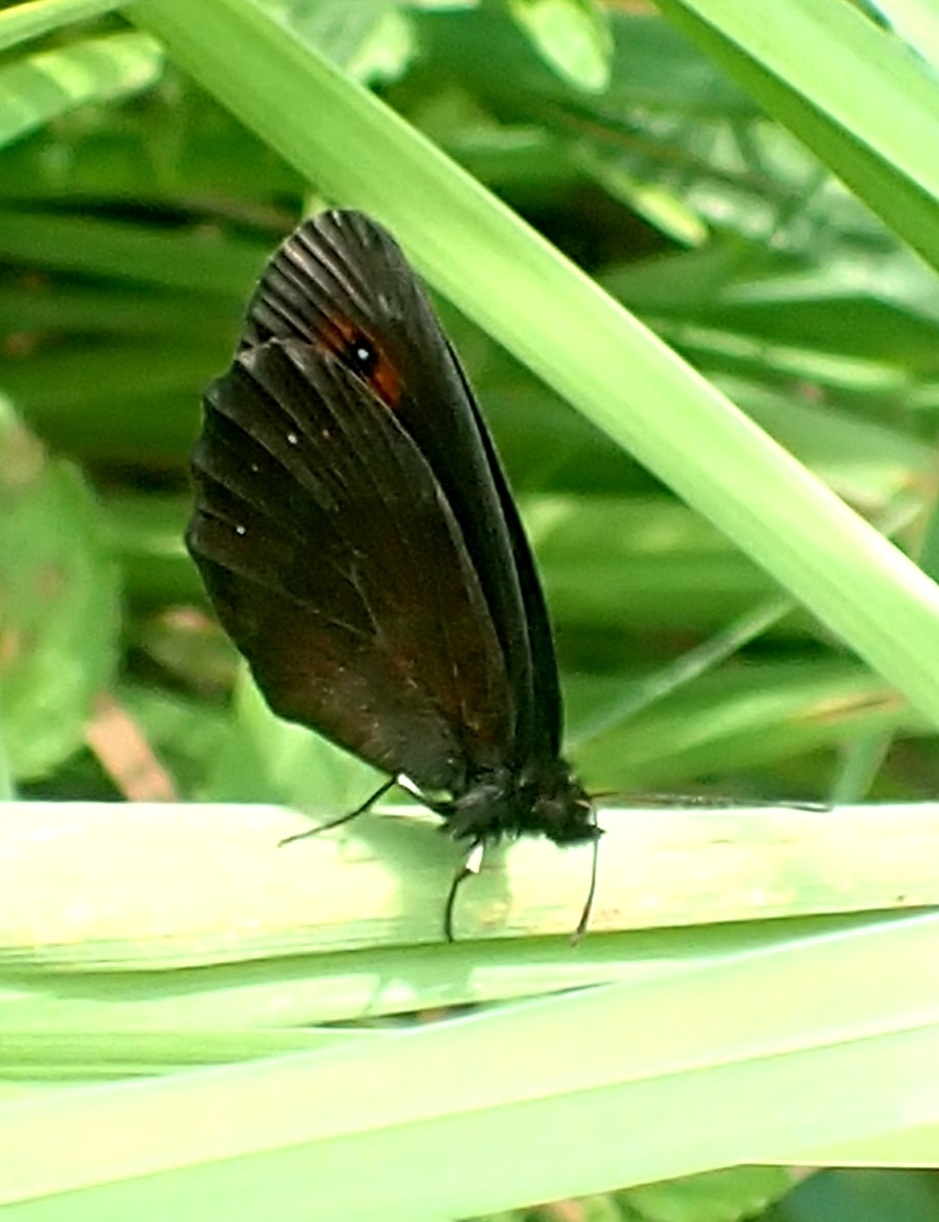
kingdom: Animalia
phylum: Arthropoda
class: Insecta
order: Lepidoptera
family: Nymphalidae
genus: Erebia
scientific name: Erebia aethiops
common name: Scotch argus
